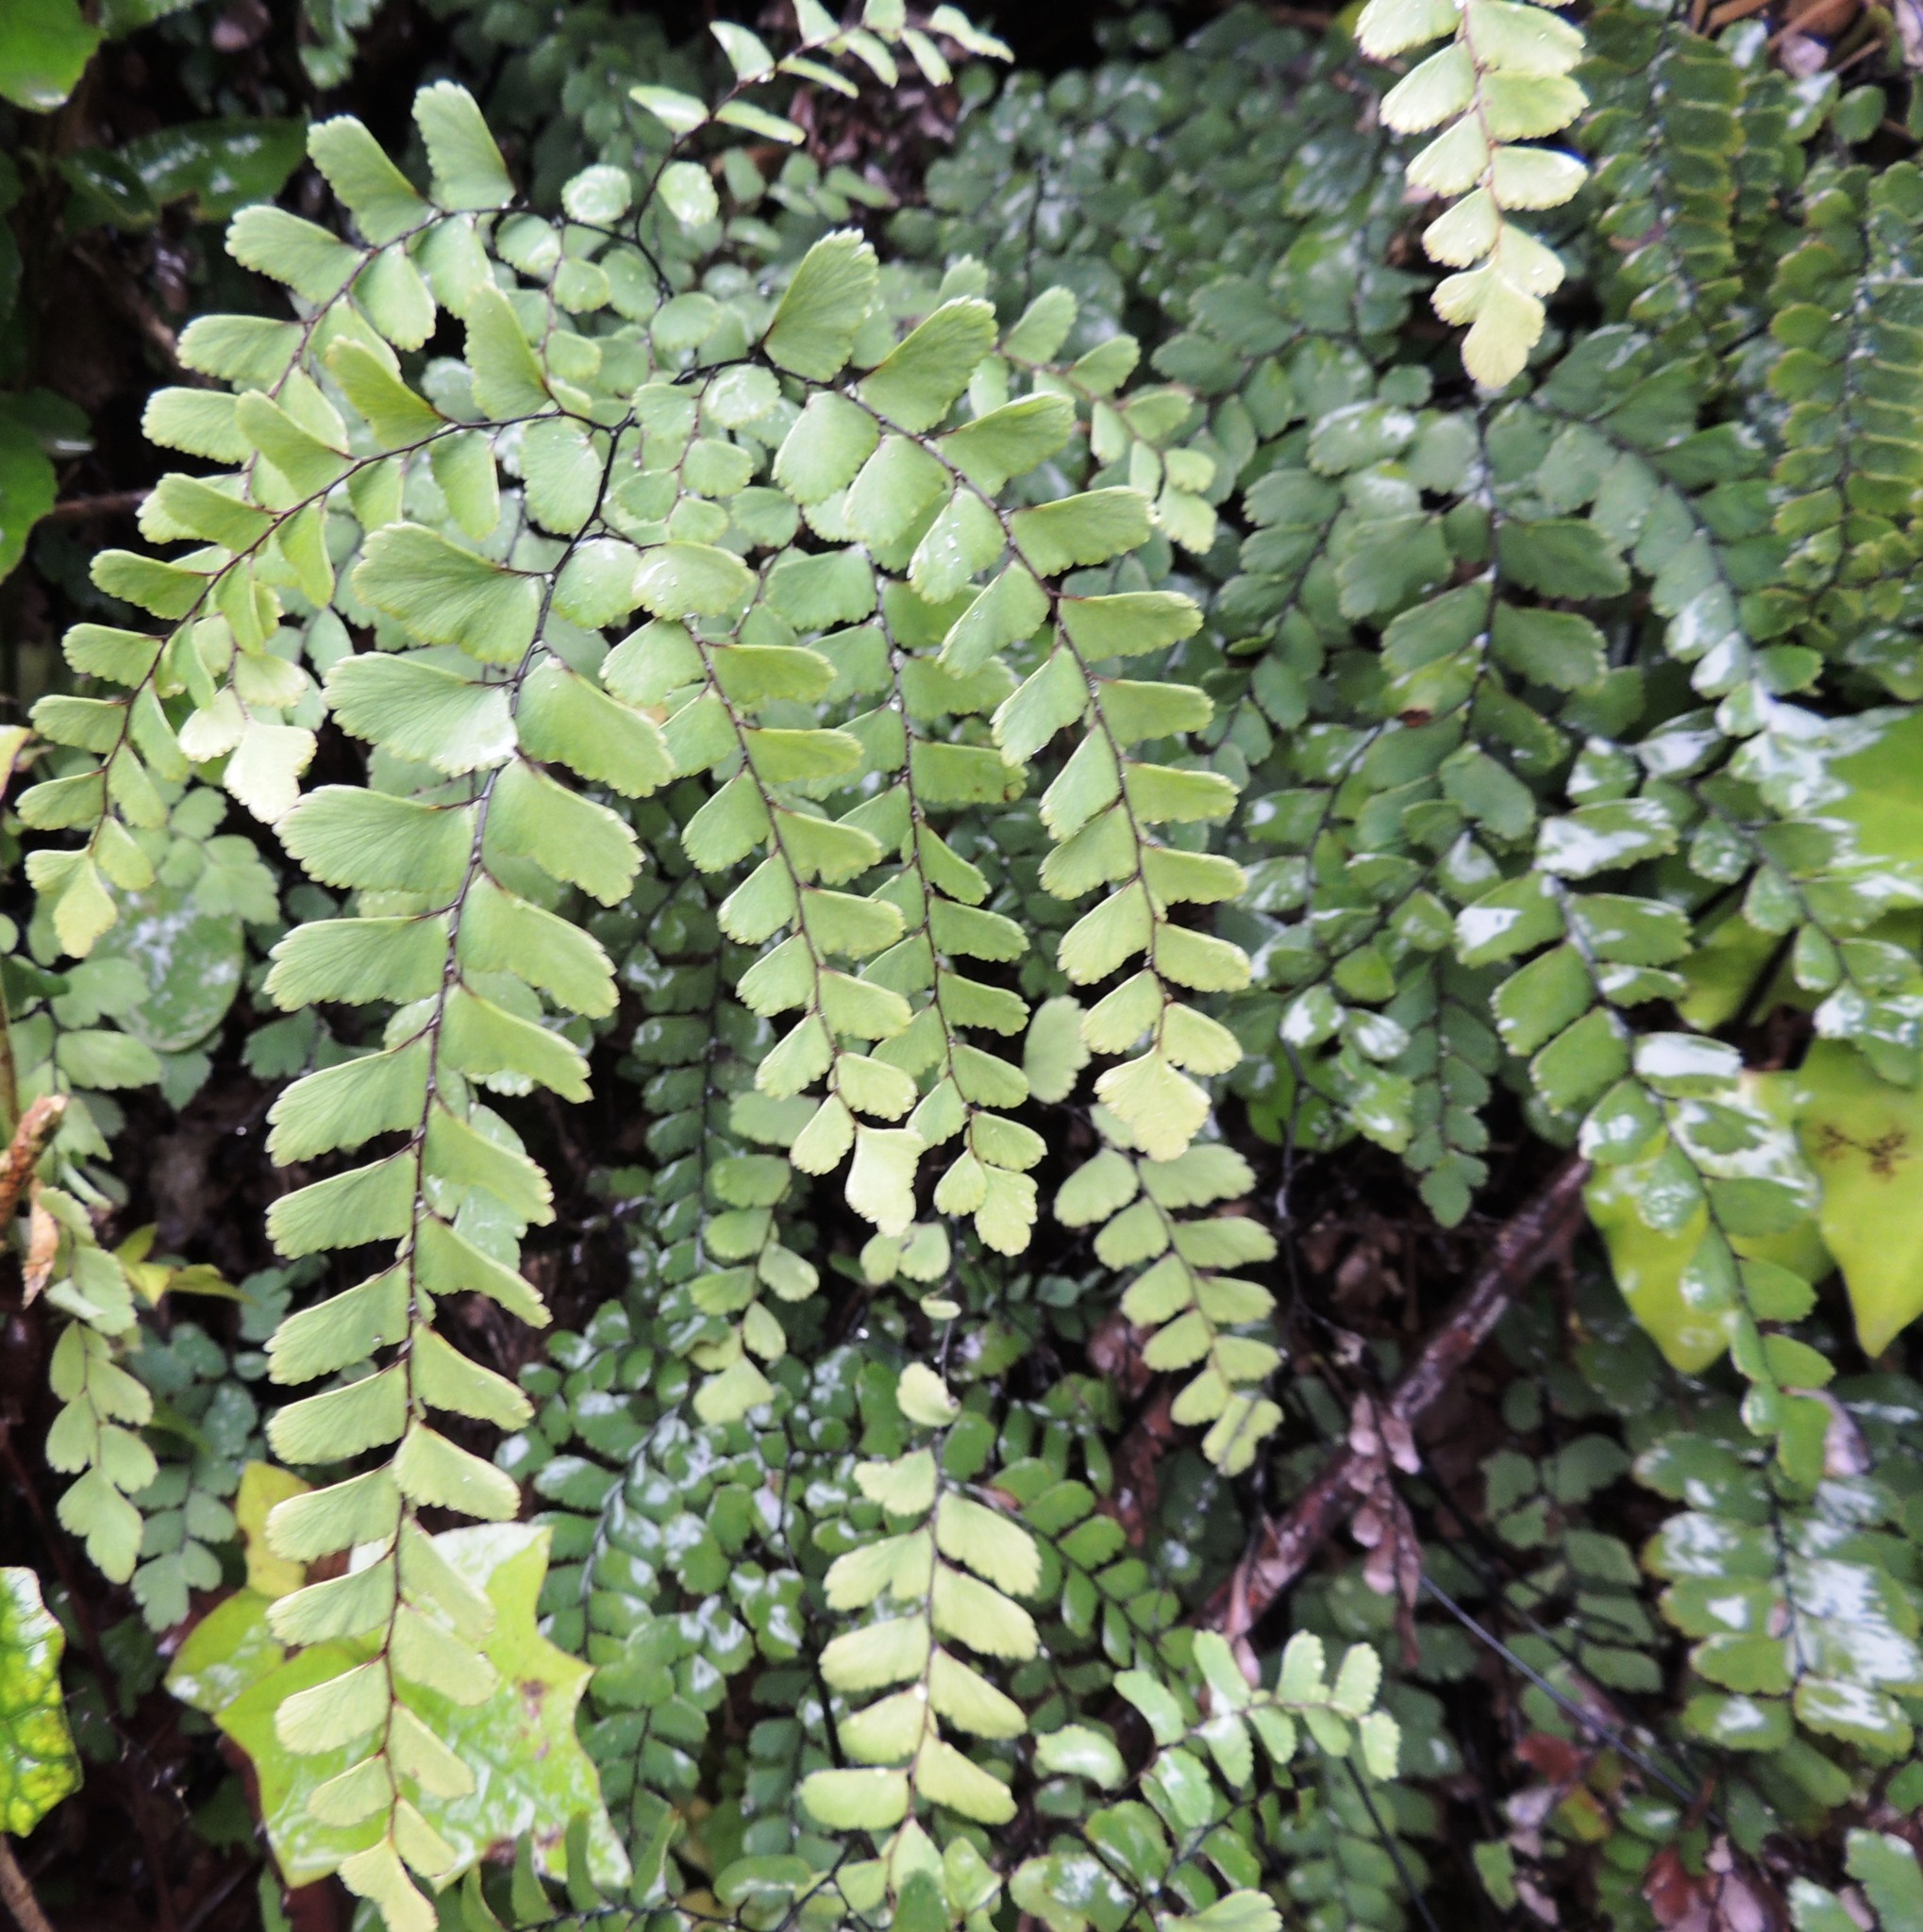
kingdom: Plantae
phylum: Tracheophyta
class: Polypodiopsida
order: Polypodiales
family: Pteridaceae
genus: Adiantum
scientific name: Adiantum cunninghamii
